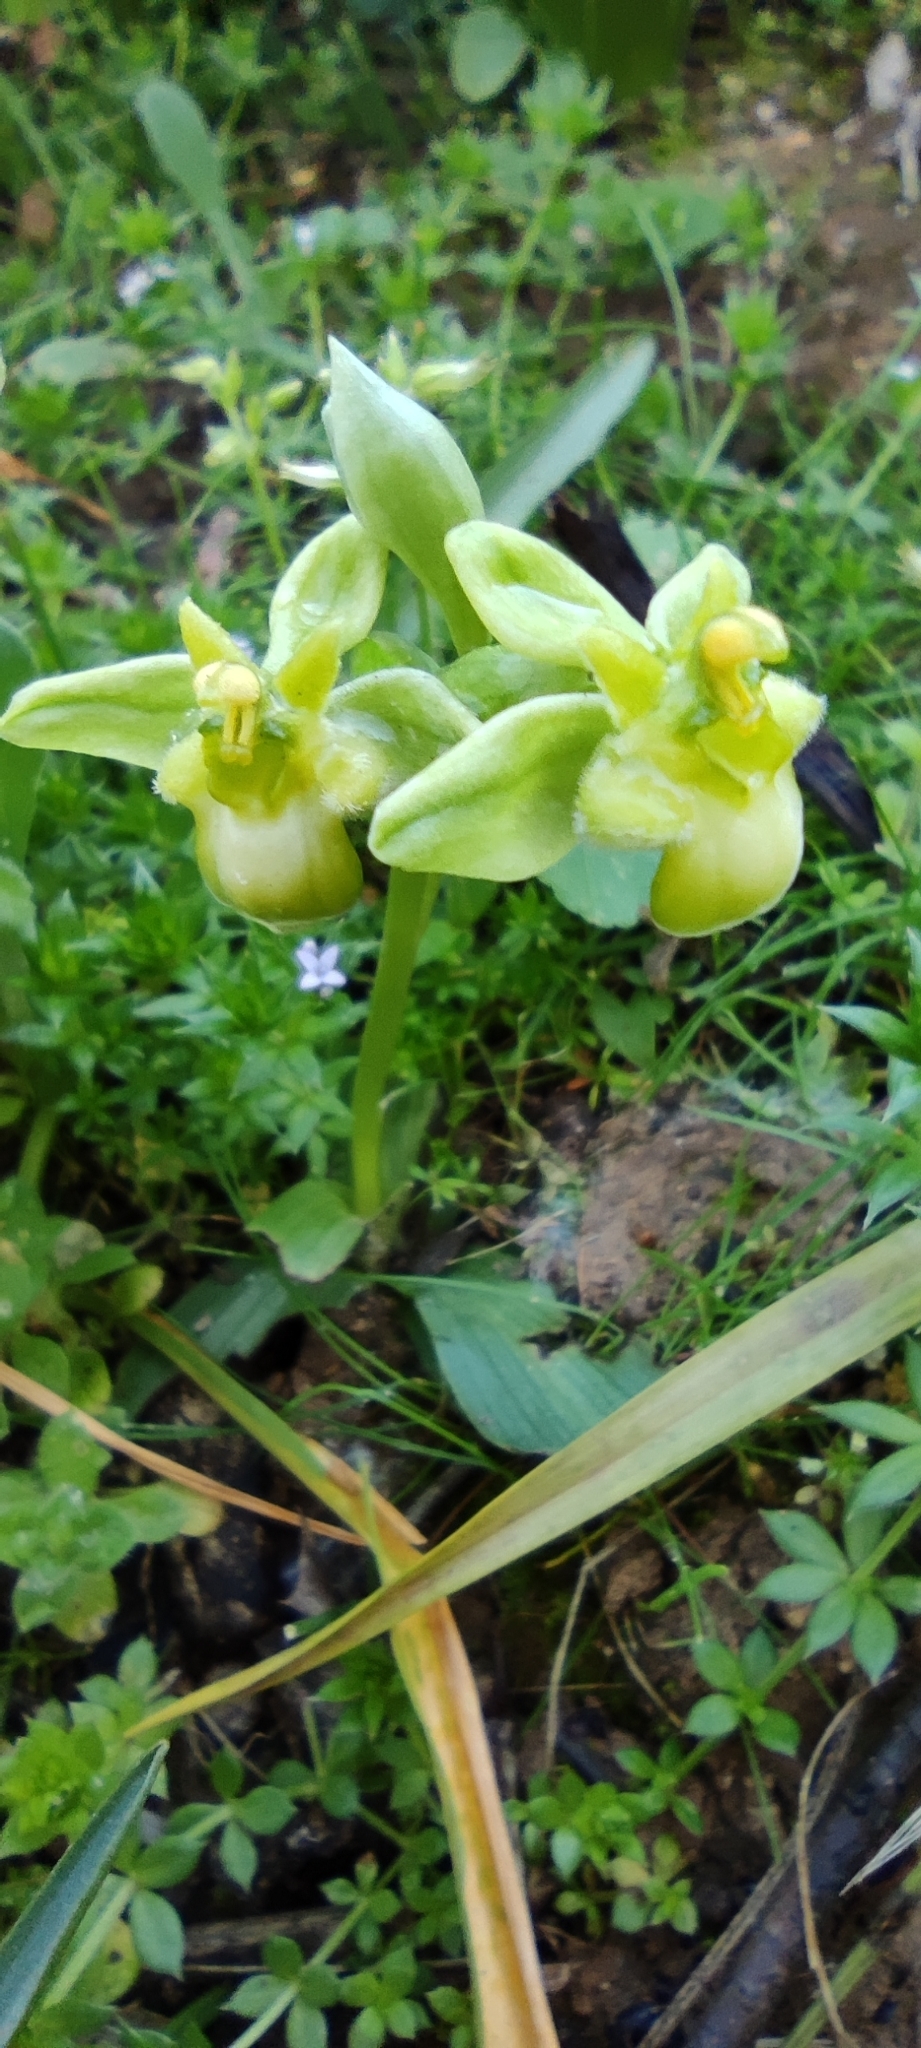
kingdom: Plantae
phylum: Tracheophyta
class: Liliopsida
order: Asparagales
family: Orchidaceae
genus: Ophrys
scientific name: Ophrys bombyliflora
